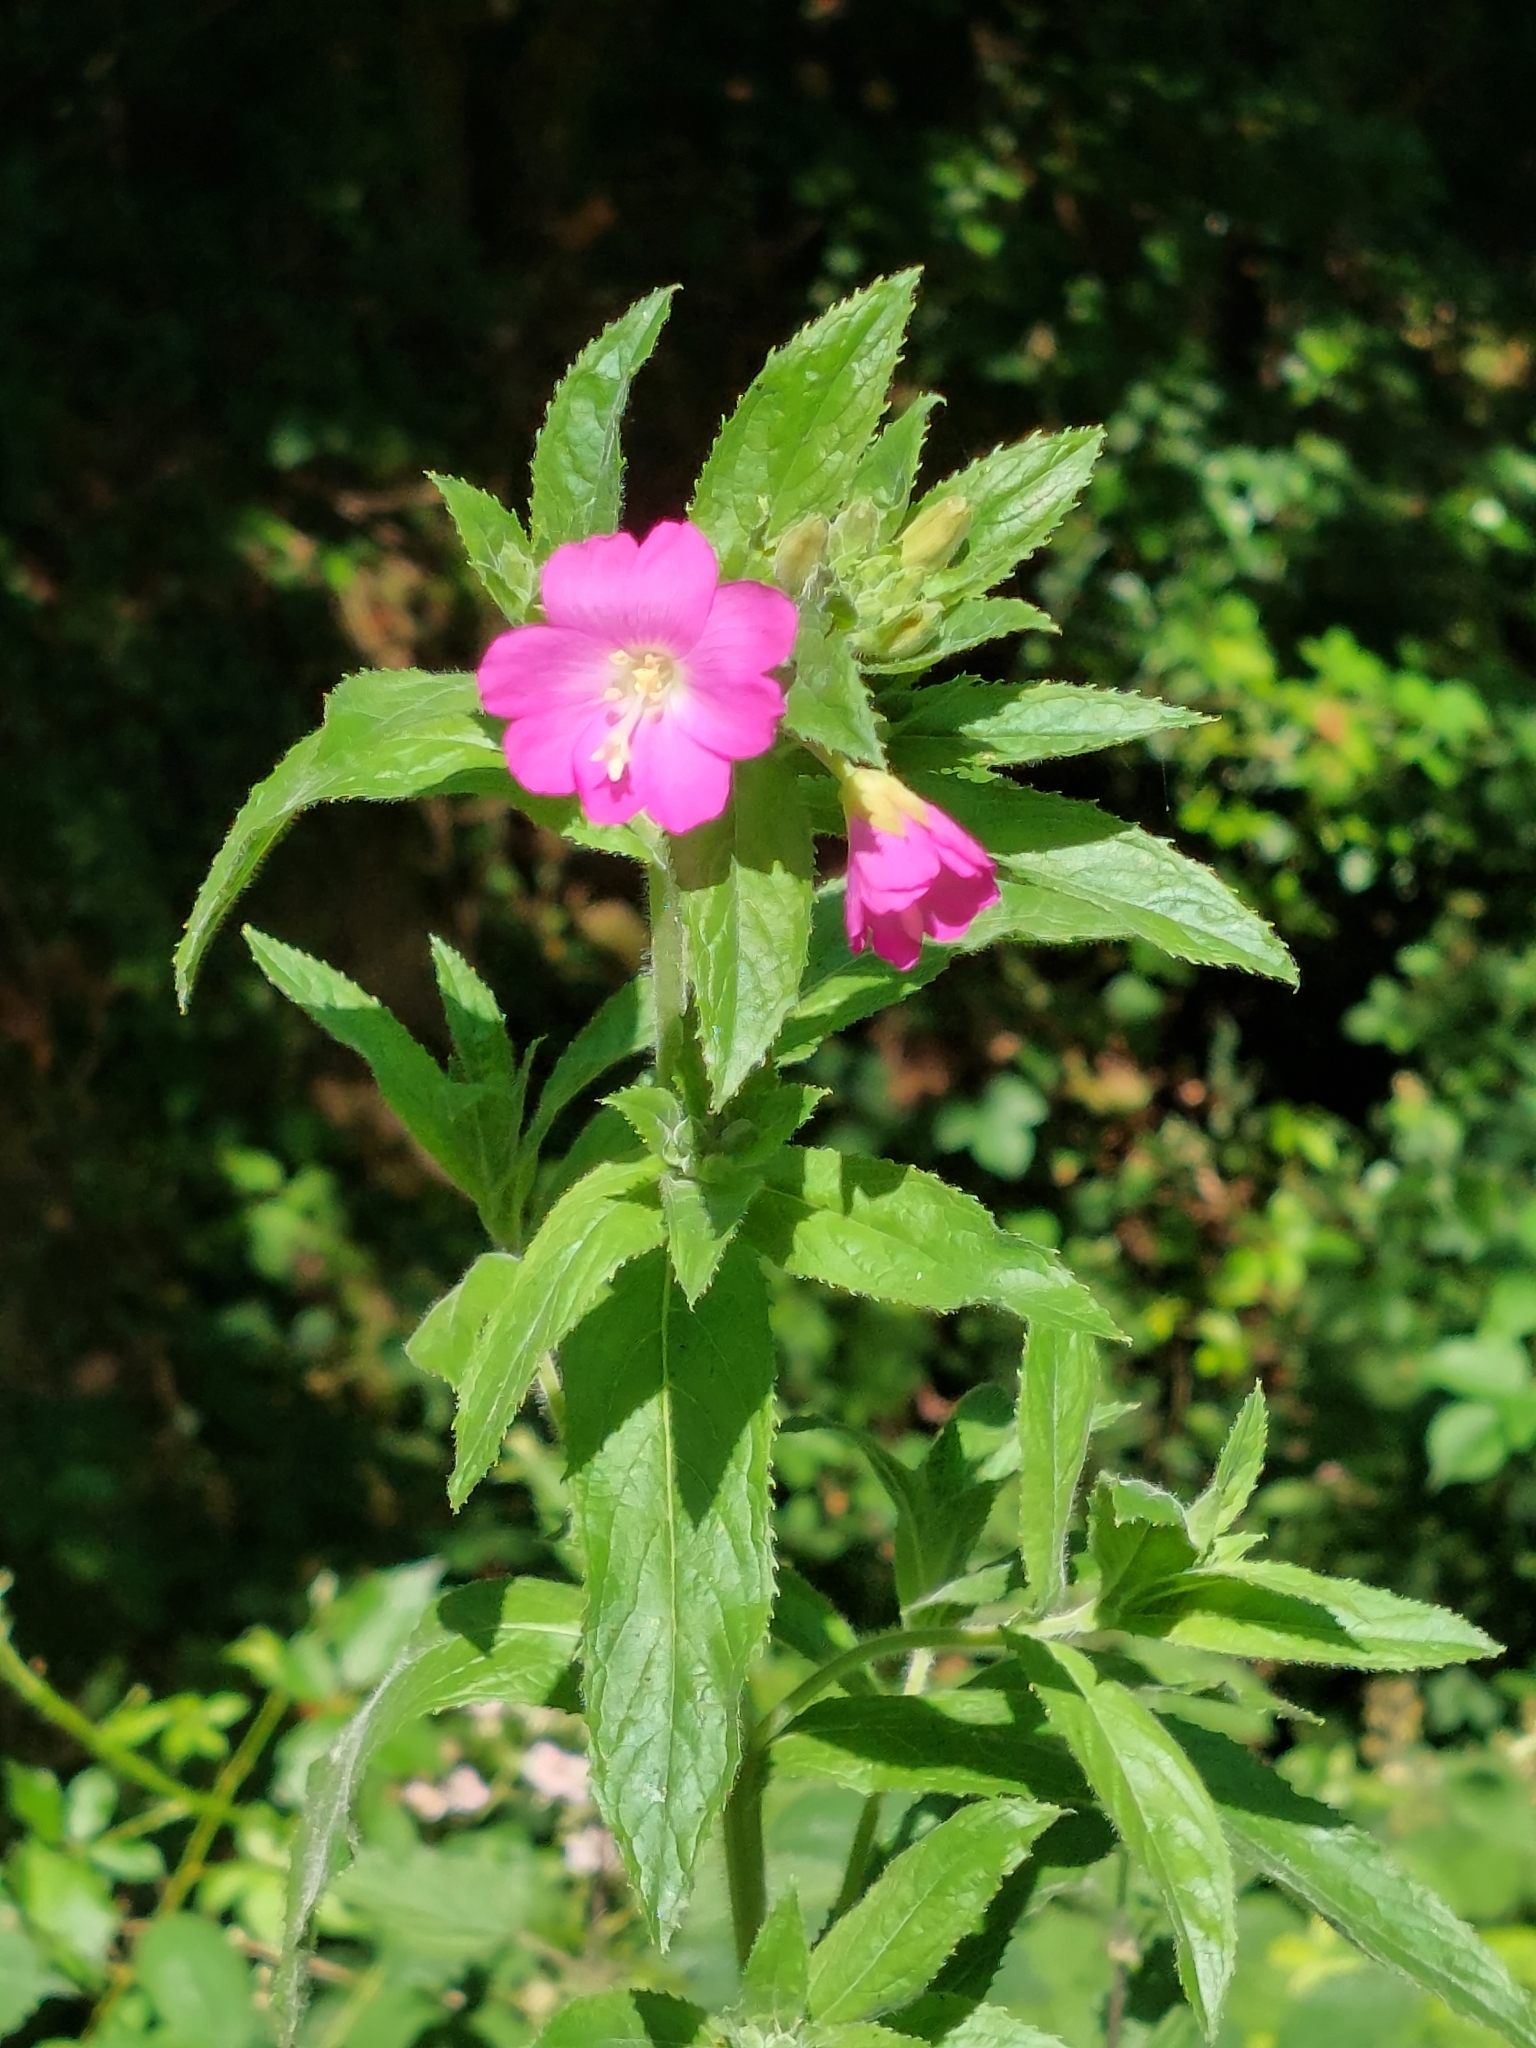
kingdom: Plantae
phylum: Tracheophyta
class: Magnoliopsida
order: Myrtales
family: Onagraceae
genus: Epilobium
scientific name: Epilobium hirsutum
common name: Great willowherb
